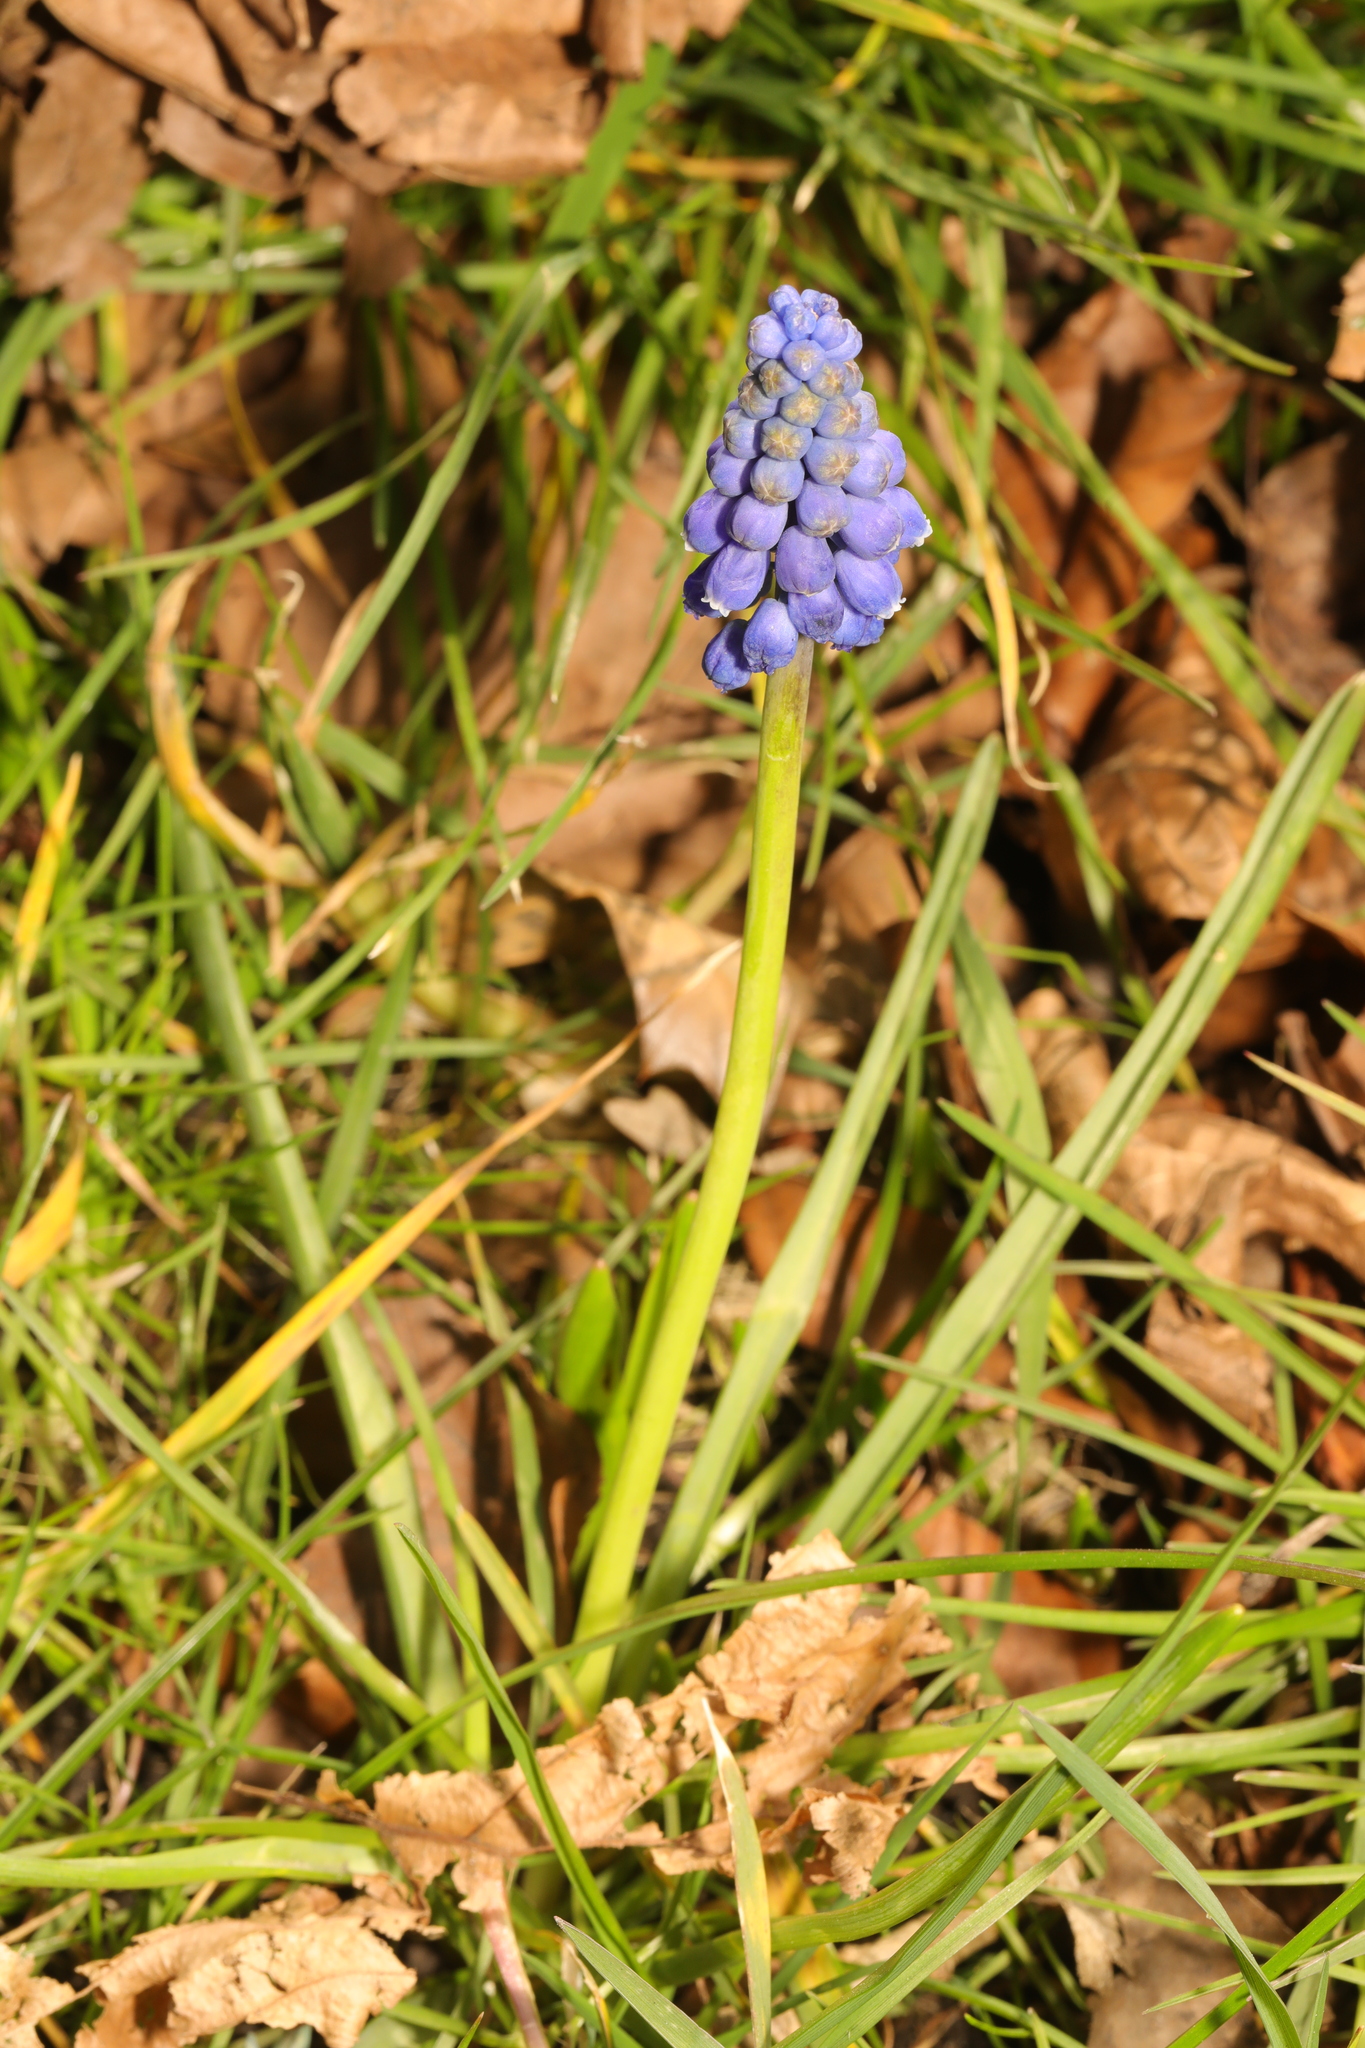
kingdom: Plantae
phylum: Tracheophyta
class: Liliopsida
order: Asparagales
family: Asparagaceae
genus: Muscari
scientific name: Muscari armeniacum
